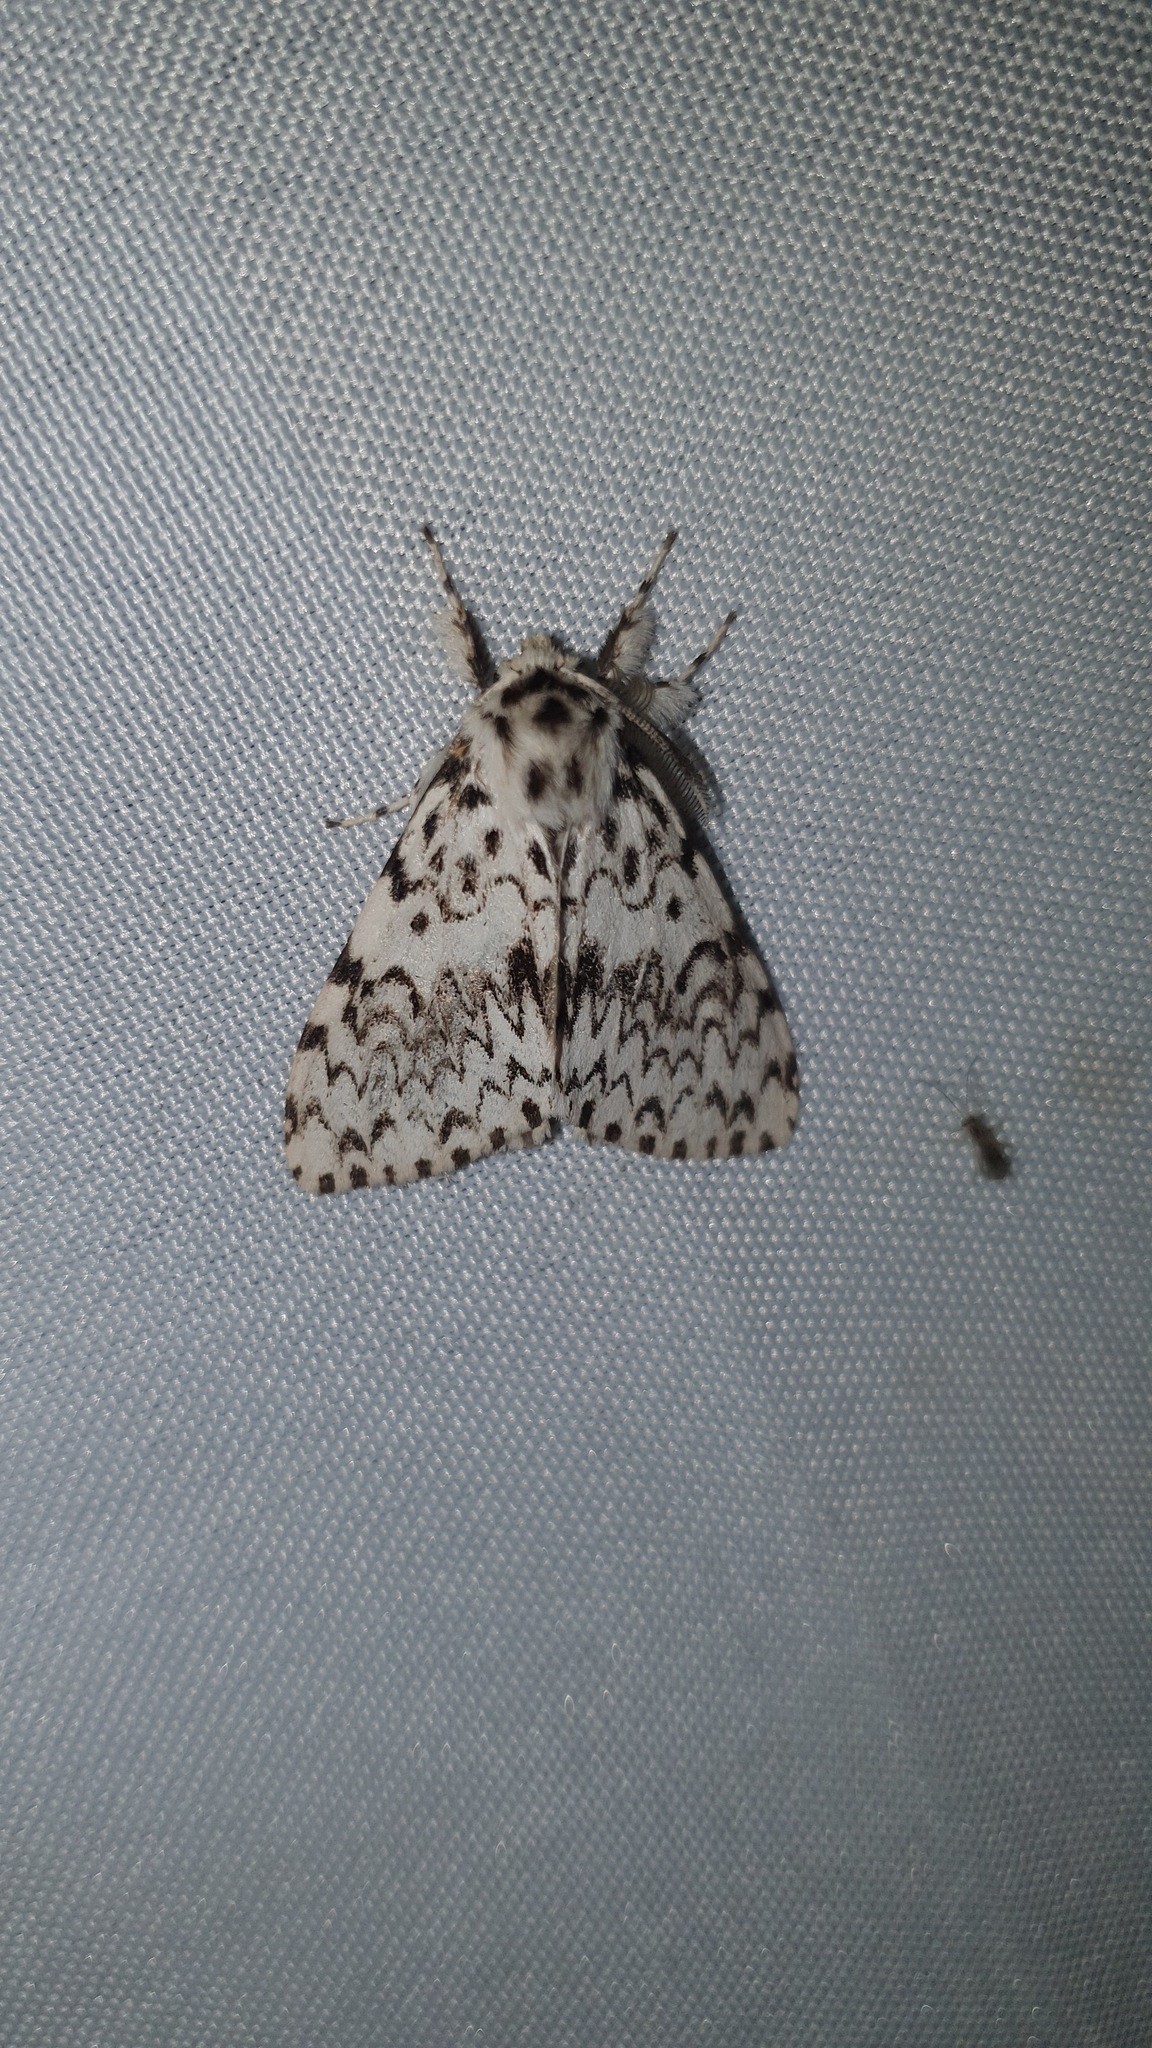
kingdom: Animalia
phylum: Arthropoda
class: Insecta
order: Lepidoptera
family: Erebidae
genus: Lymantria
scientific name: Lymantria monacha
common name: Black arches
